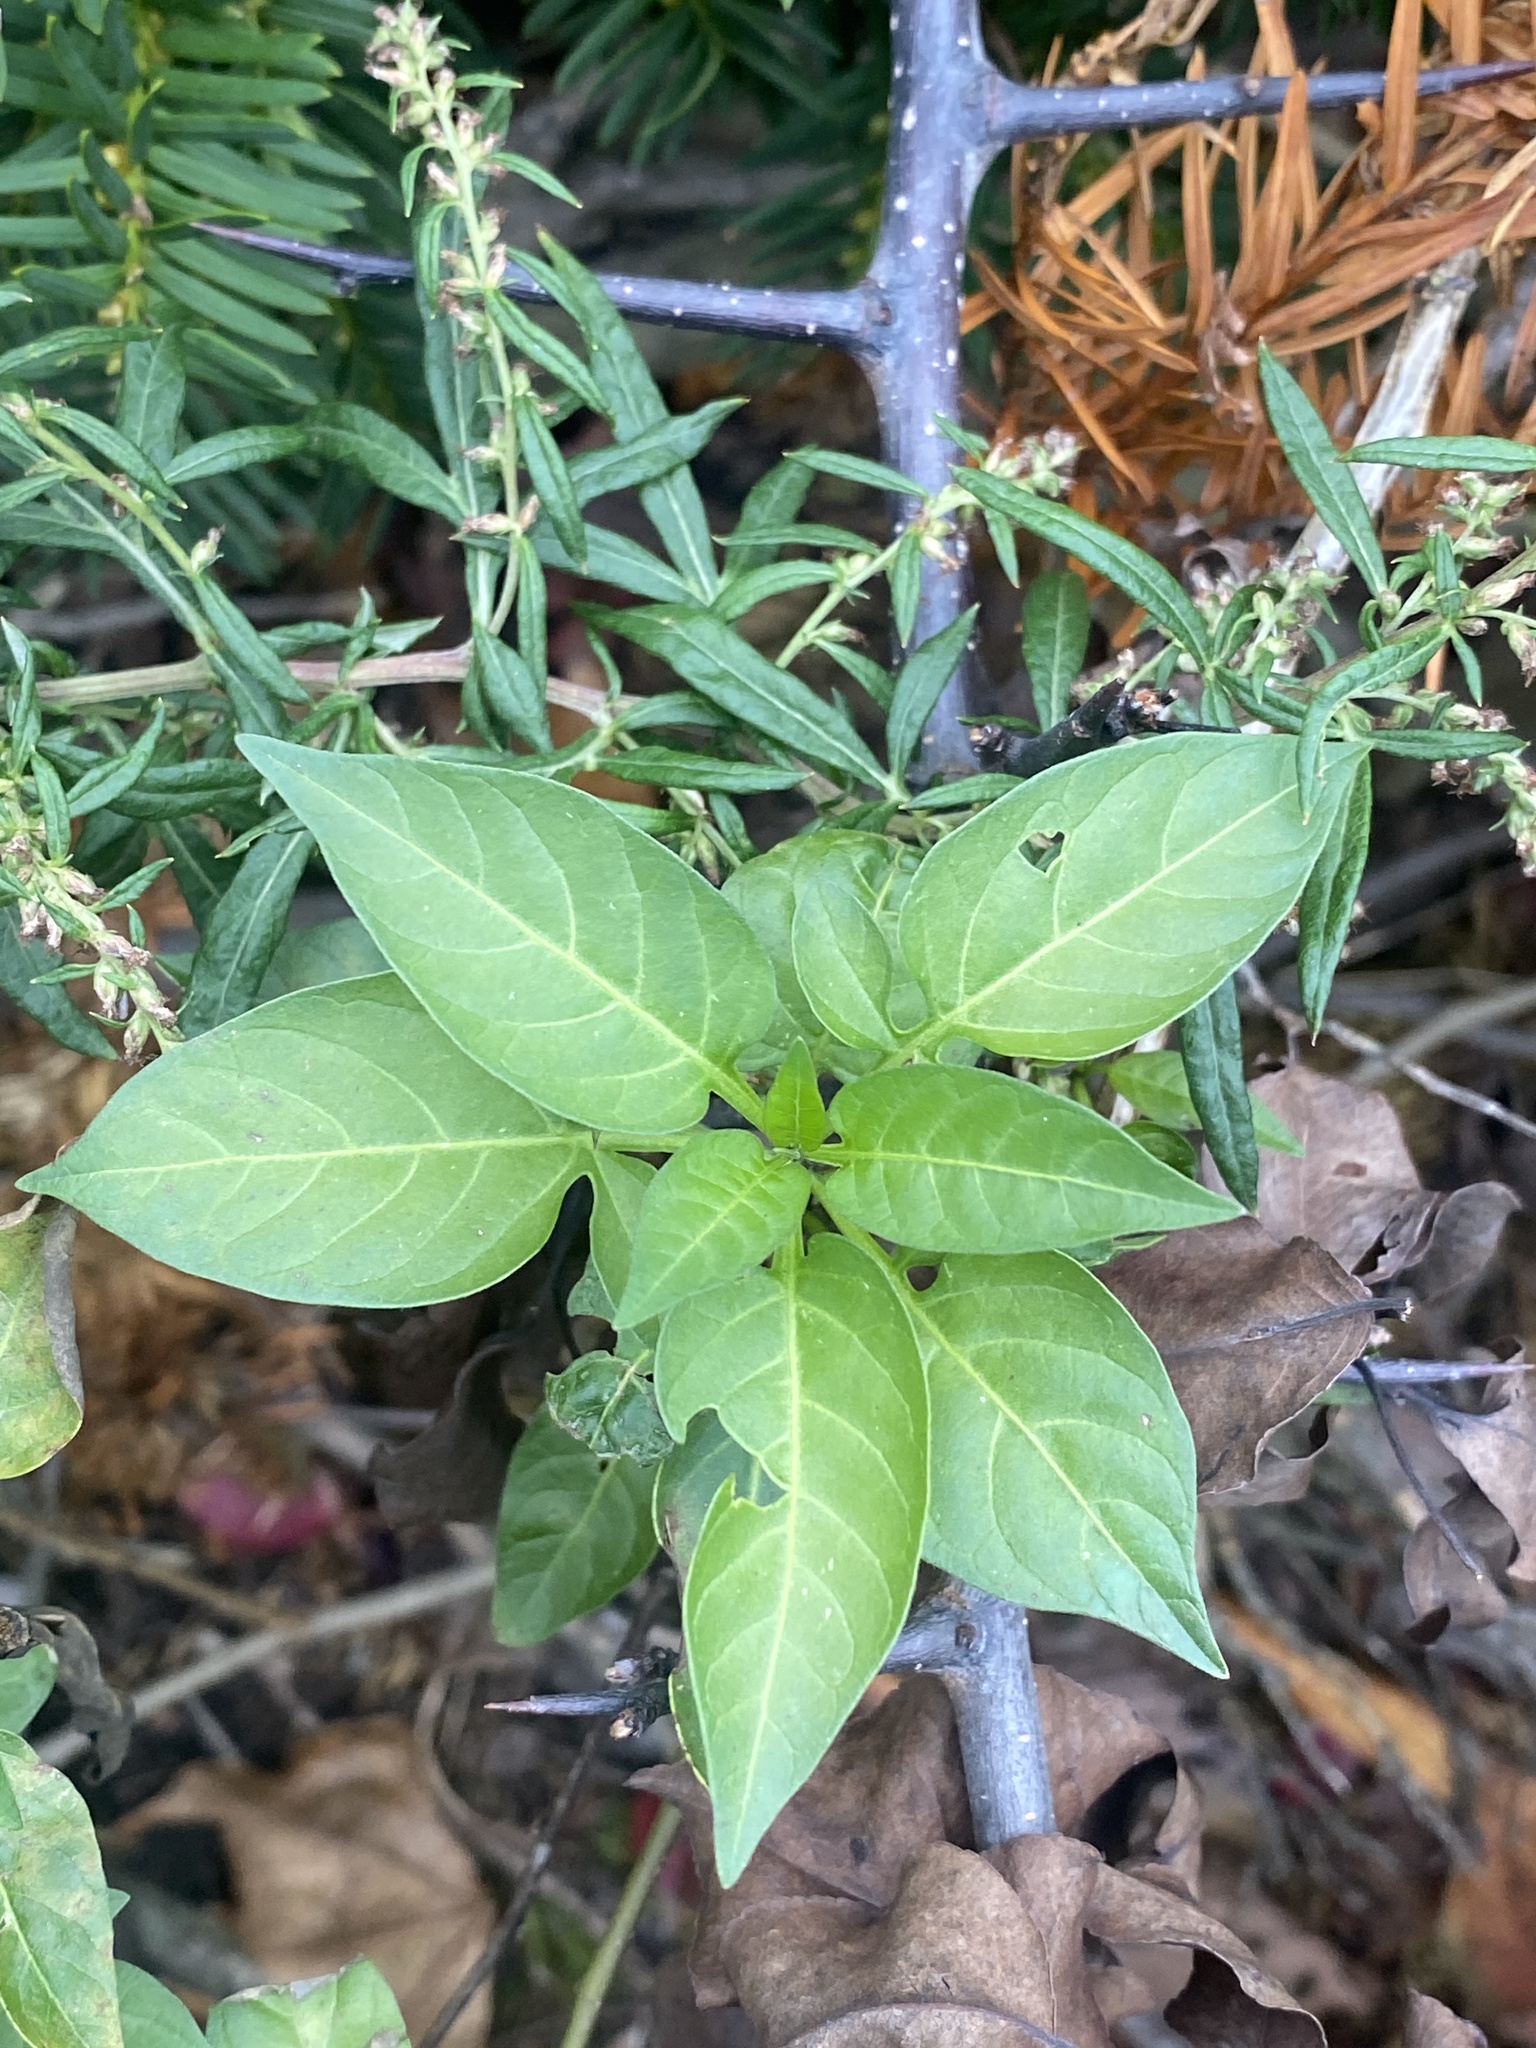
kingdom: Plantae
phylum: Tracheophyta
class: Magnoliopsida
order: Solanales
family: Solanaceae
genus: Solanum
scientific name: Solanum dulcamara
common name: Climbing nightshade
